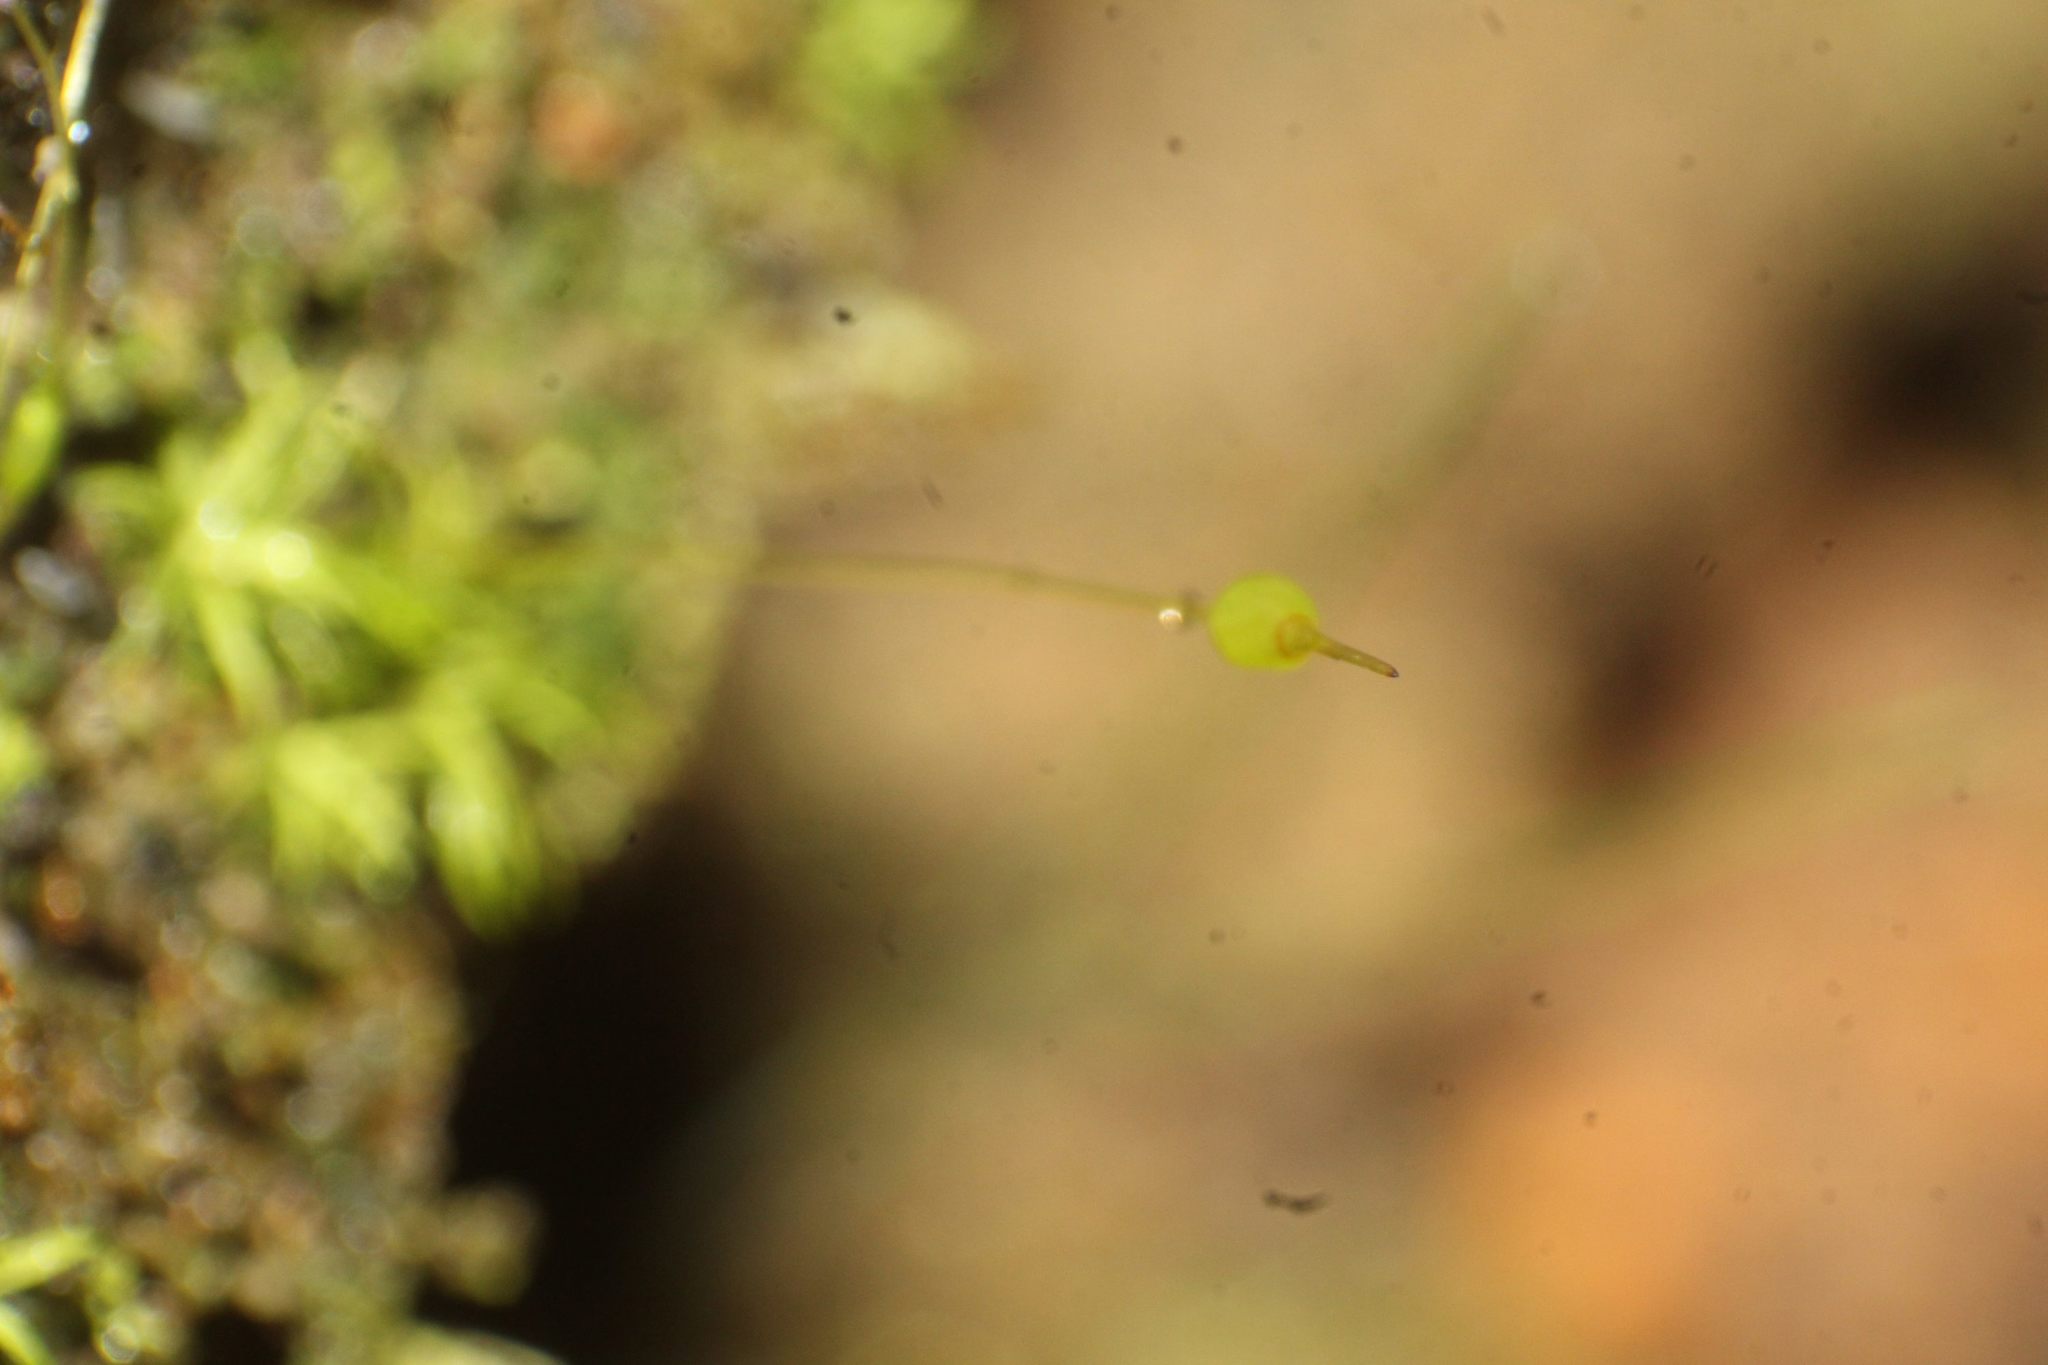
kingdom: Plantae
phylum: Bryophyta
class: Bryopsida
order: Pottiales
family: Pottiaceae
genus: Weissia
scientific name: Weissia controversa
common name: Green-tufted stubble moss
